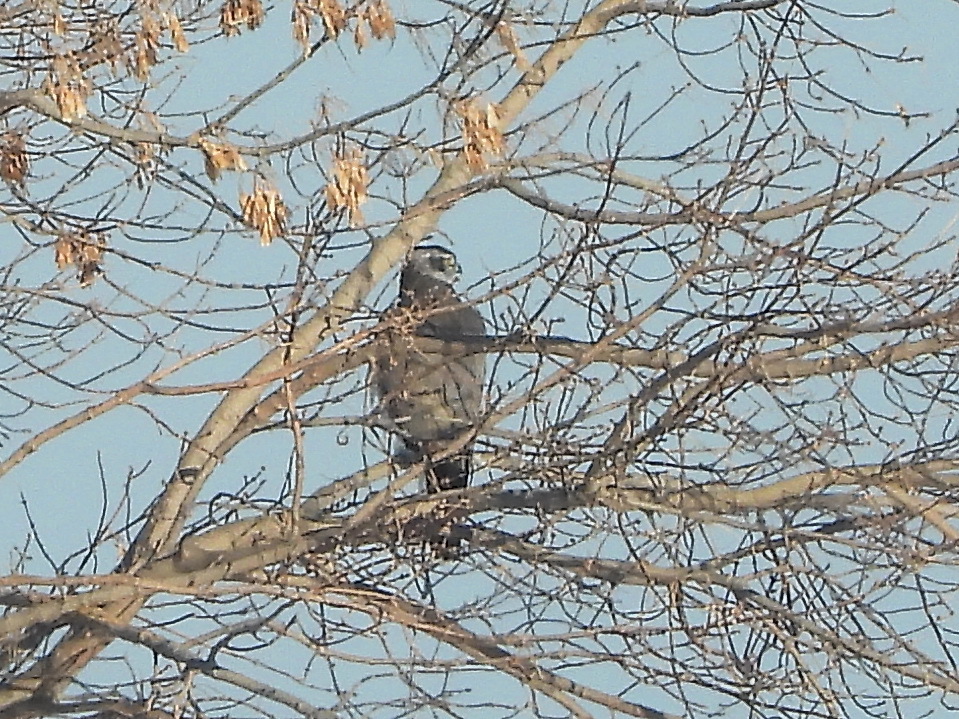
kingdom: Animalia
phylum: Chordata
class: Aves
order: Accipitriformes
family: Accipitridae
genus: Accipiter
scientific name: Accipiter gentilis
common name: Northern goshawk
